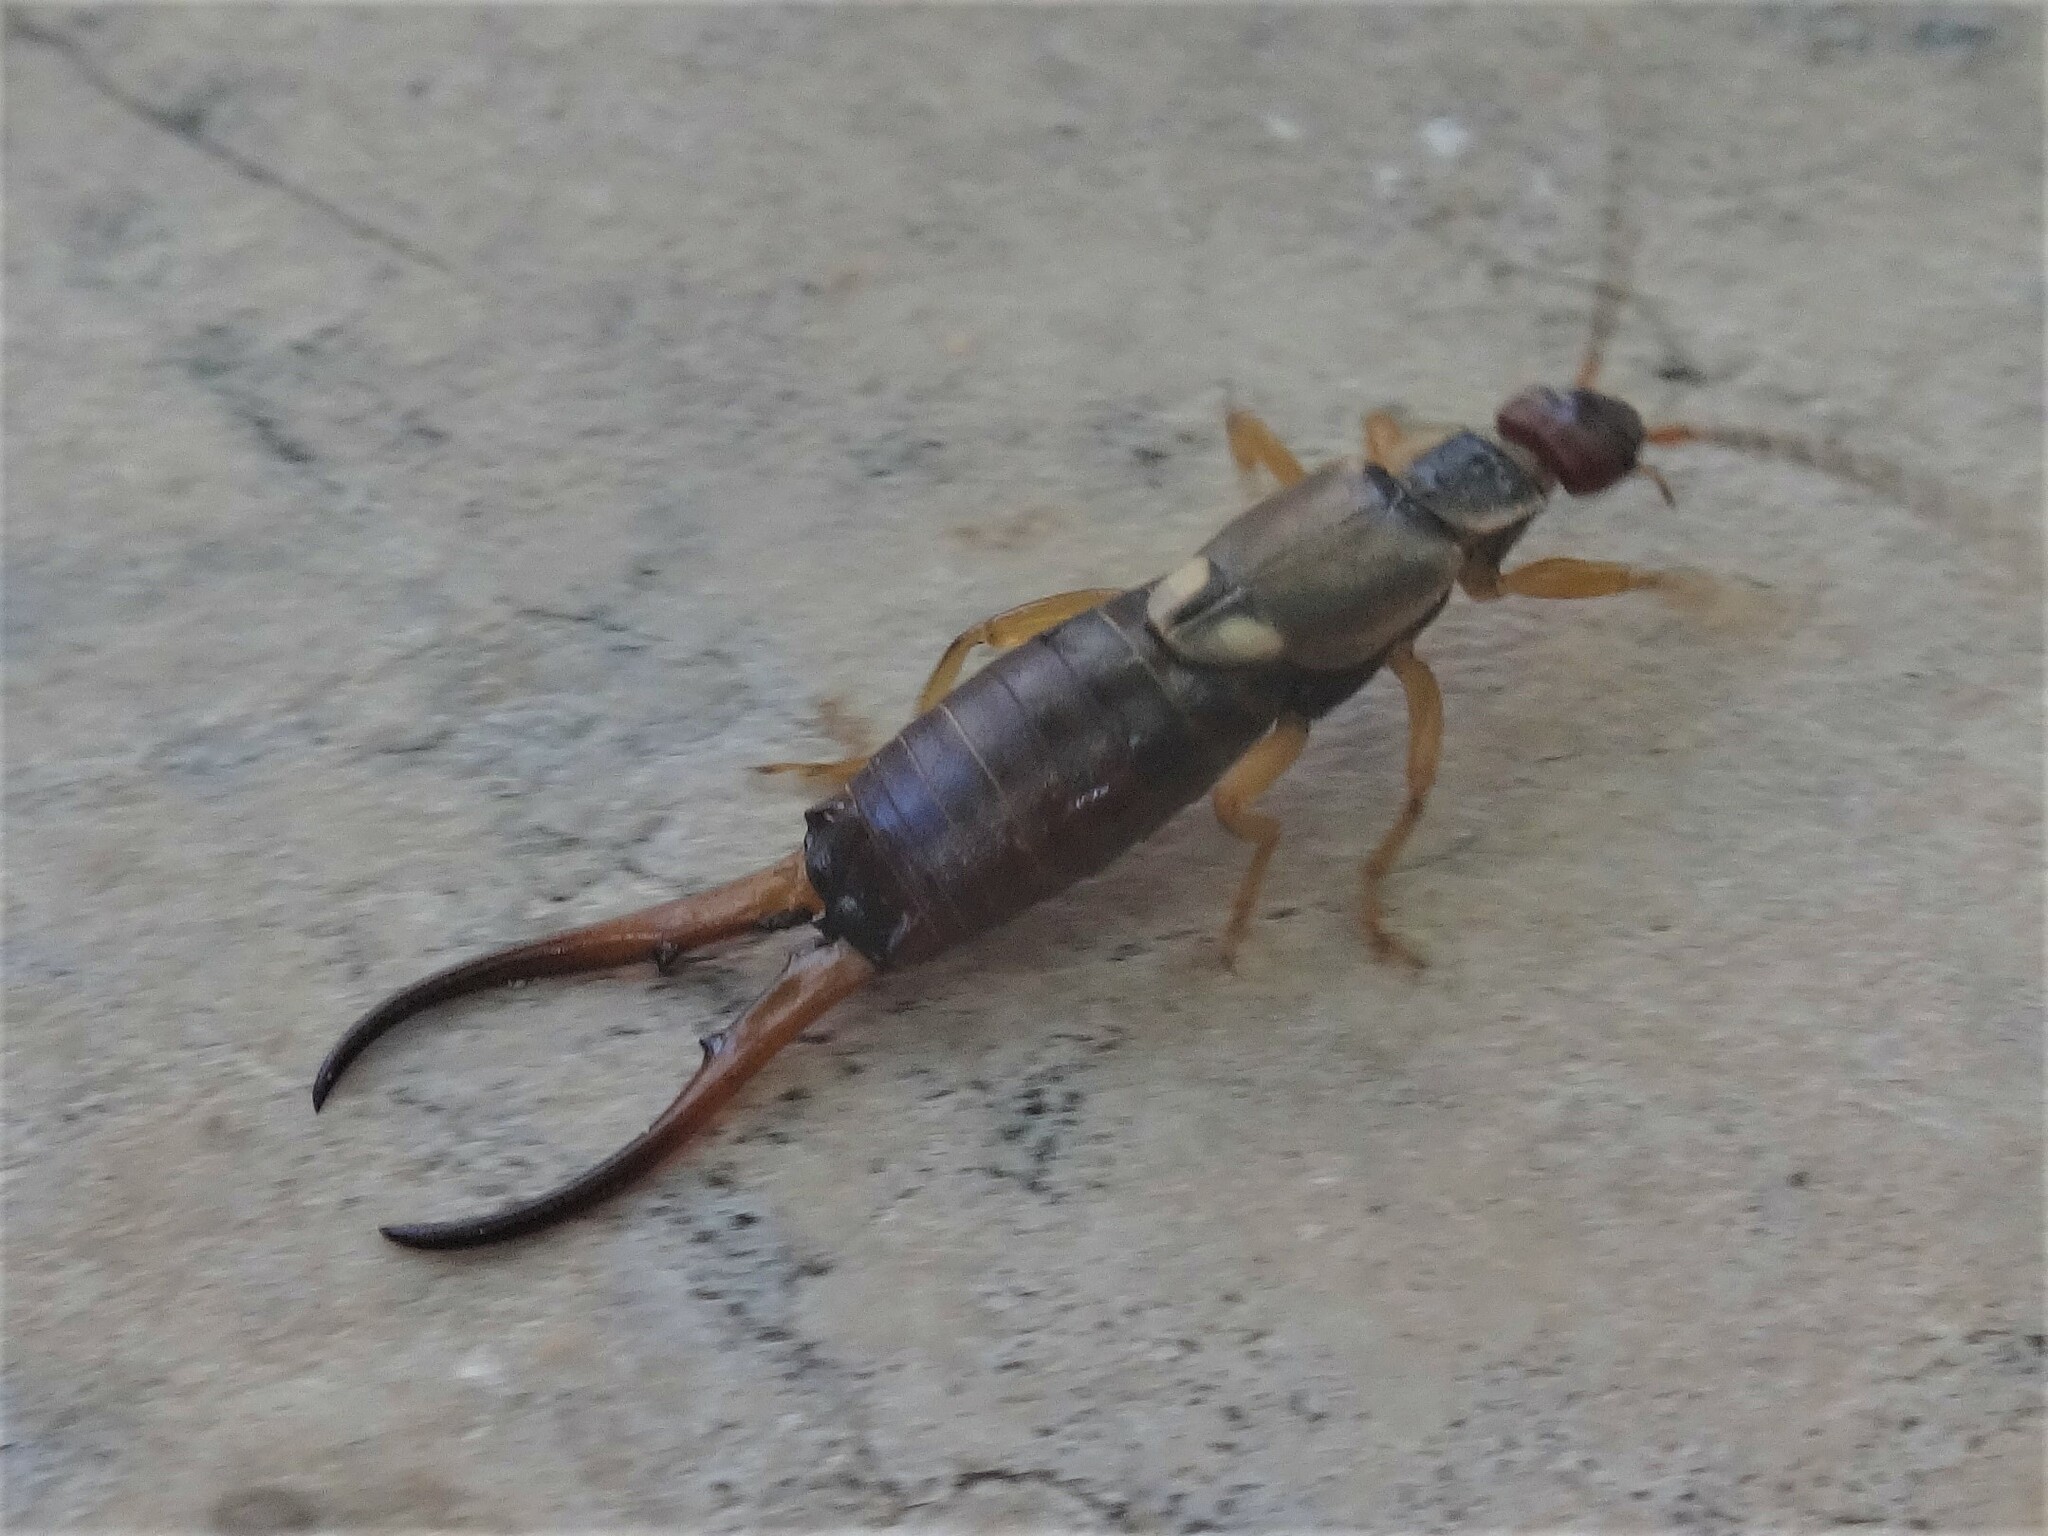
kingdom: Animalia
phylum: Arthropoda
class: Insecta
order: Dermaptera
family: Forficulidae
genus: Forficula
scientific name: Forficula
